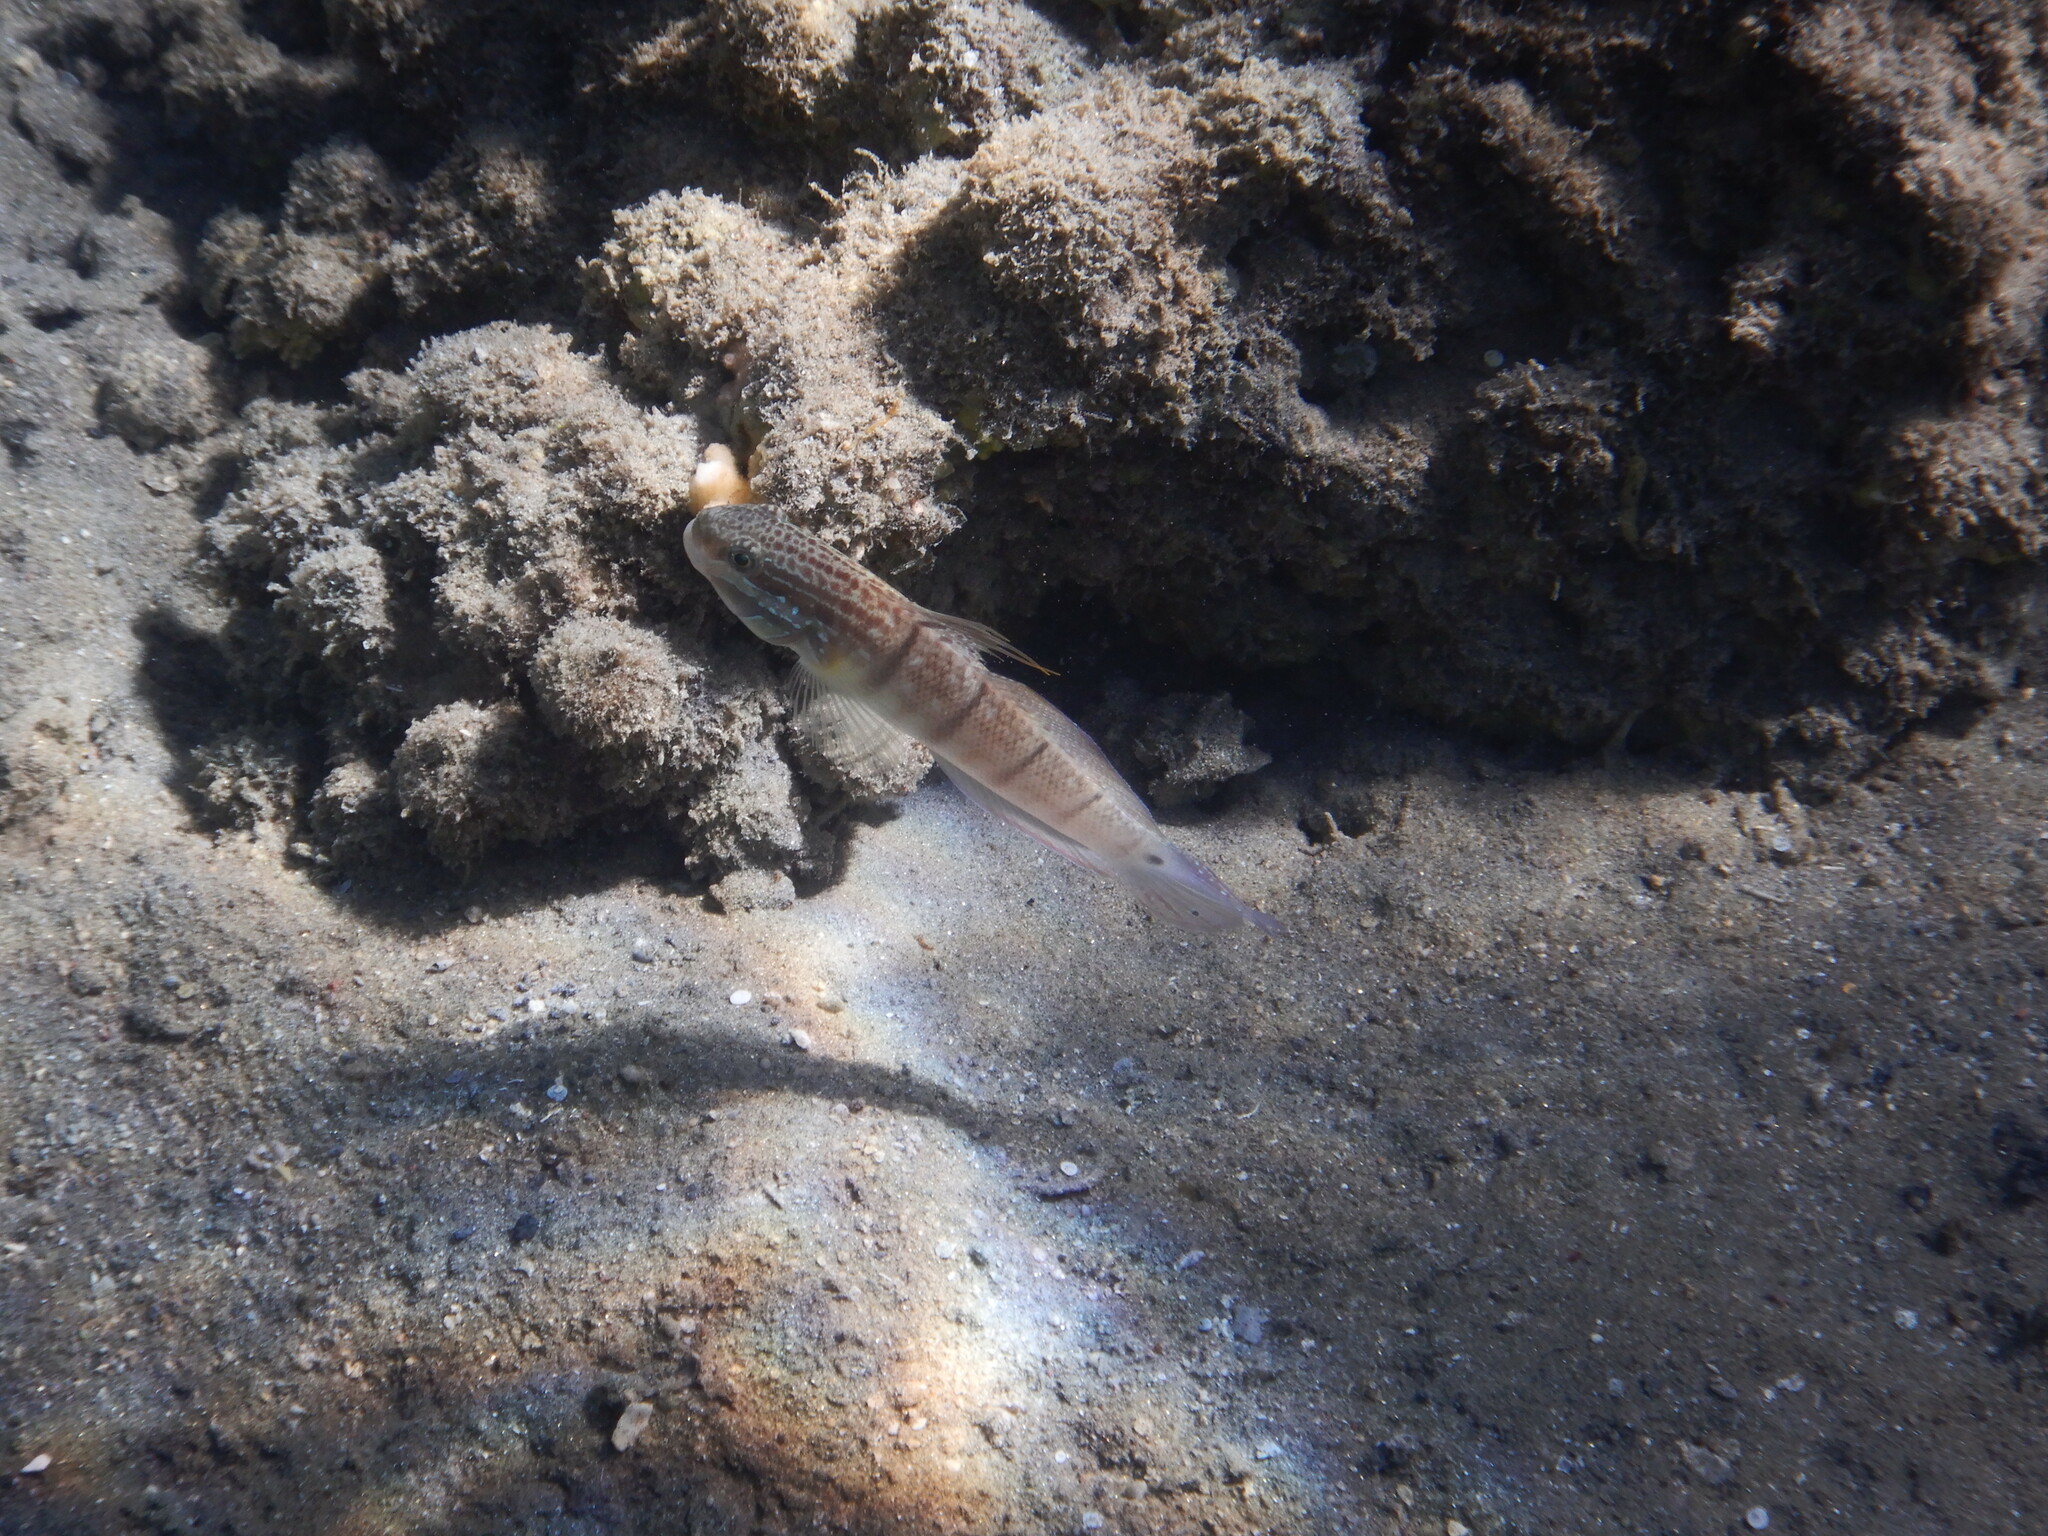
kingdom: Animalia
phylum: Chordata
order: Perciformes
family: Gobiidae
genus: Amblygobius
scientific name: Amblygobius albimaculatus
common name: Butterfly goby
